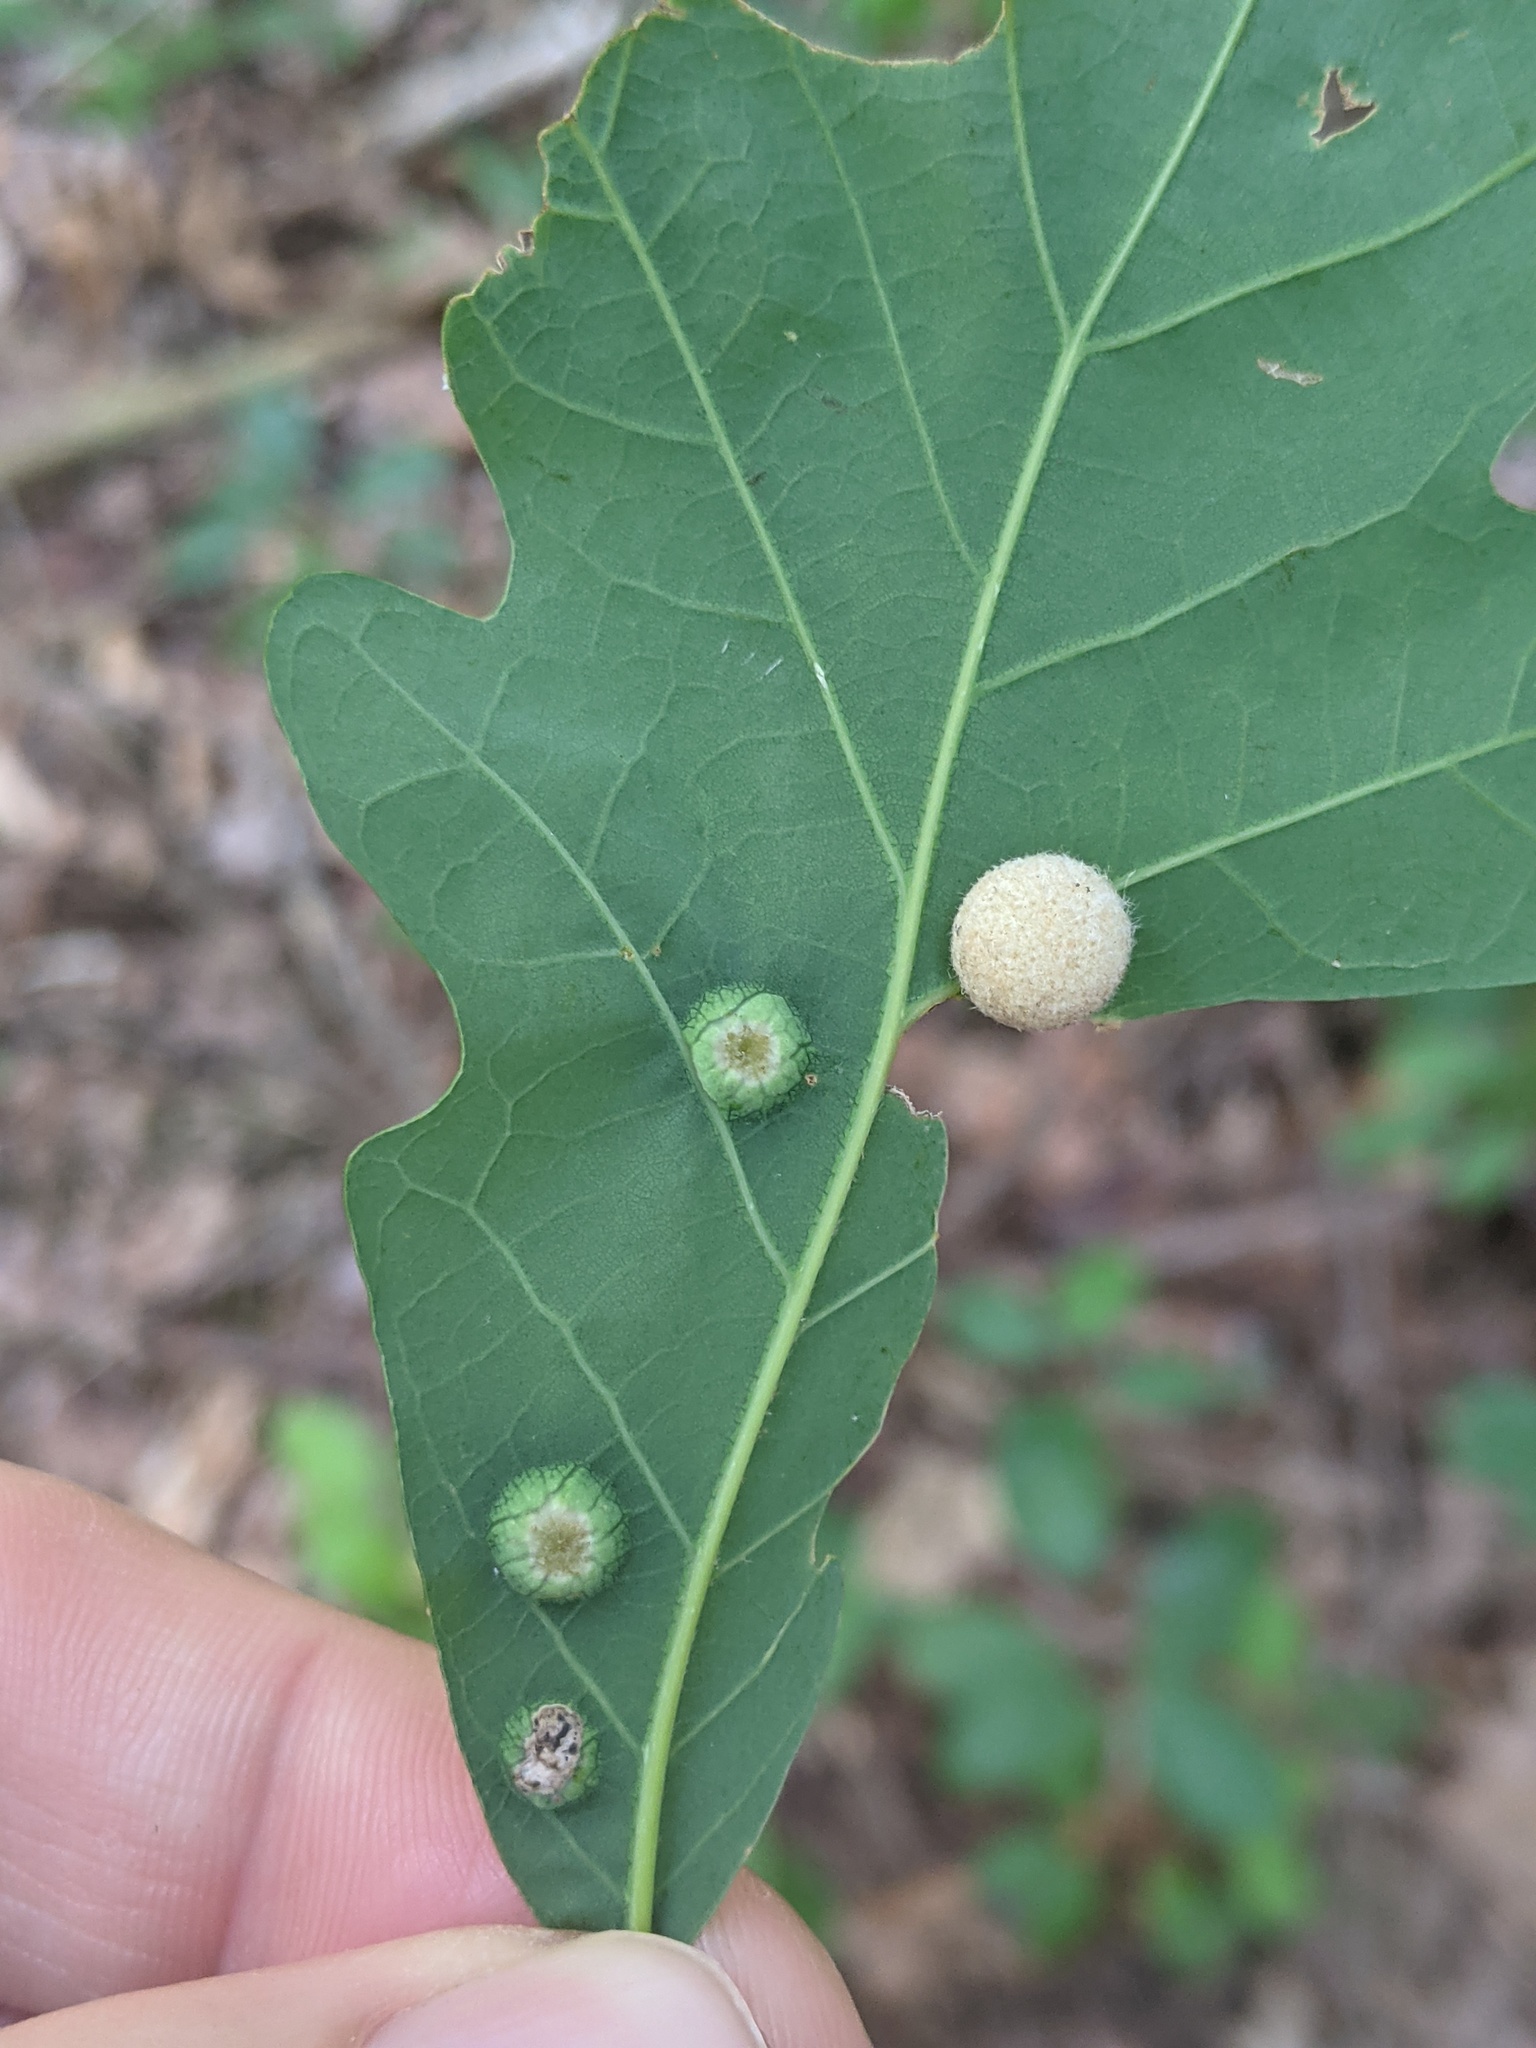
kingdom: Animalia
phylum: Arthropoda
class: Insecta
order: Hymenoptera
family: Cynipidae
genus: Philonix
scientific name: Philonix fulvicollis
